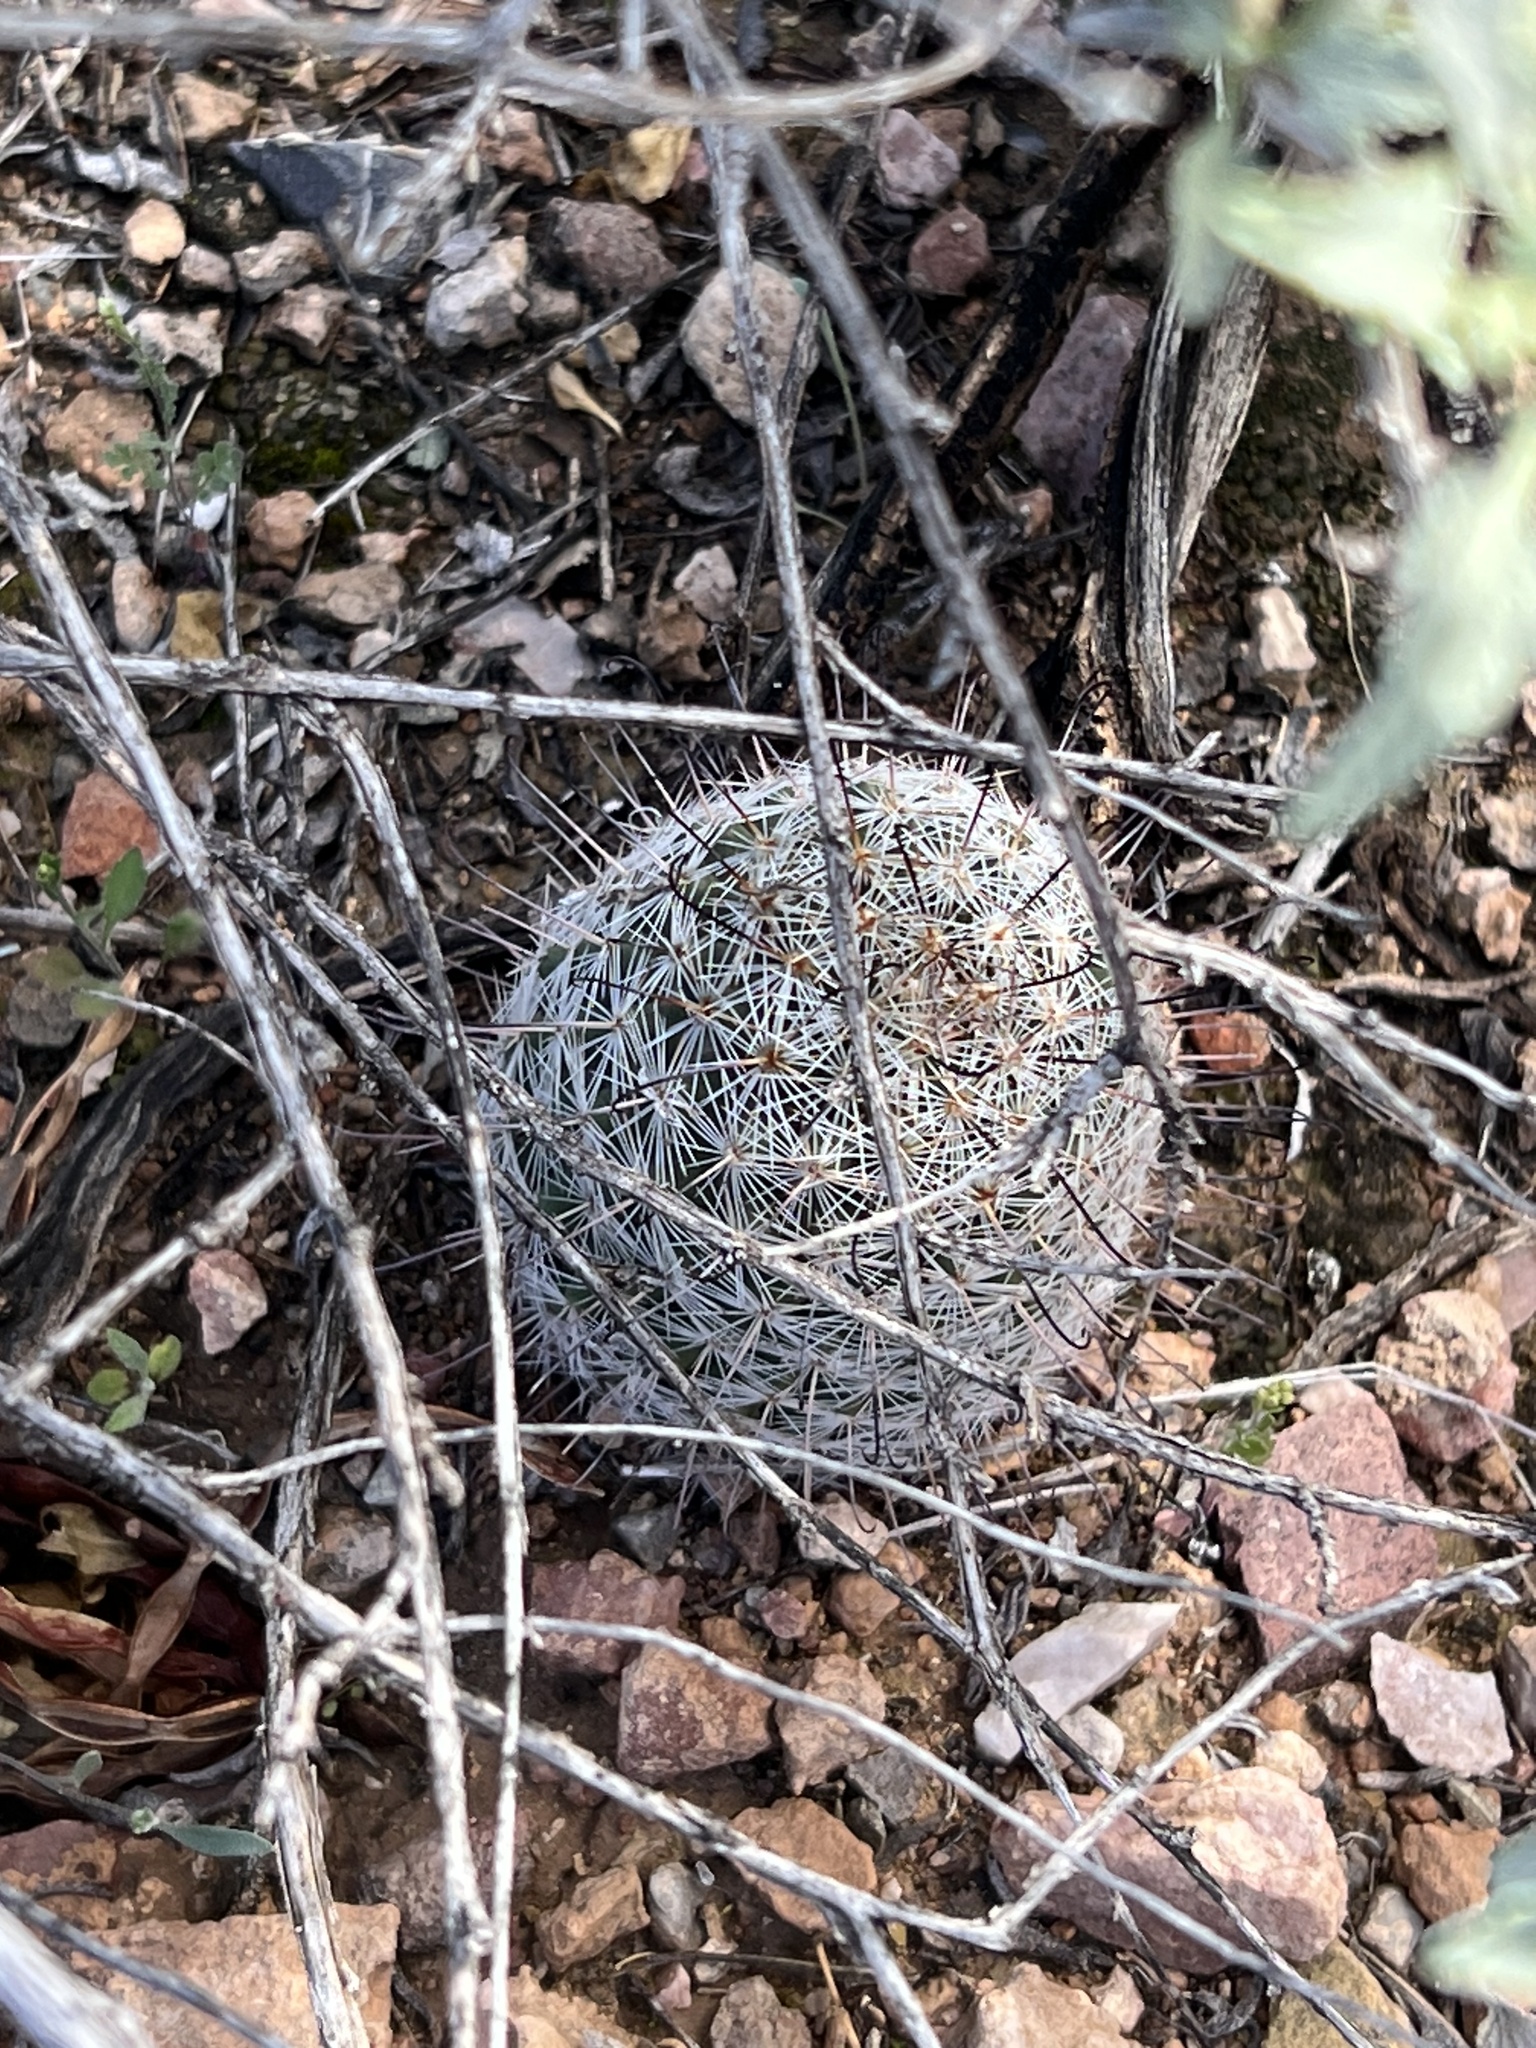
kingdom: Plantae
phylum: Tracheophyta
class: Magnoliopsida
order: Caryophyllales
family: Cactaceae
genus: Cochemiea
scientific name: Cochemiea grahamii
